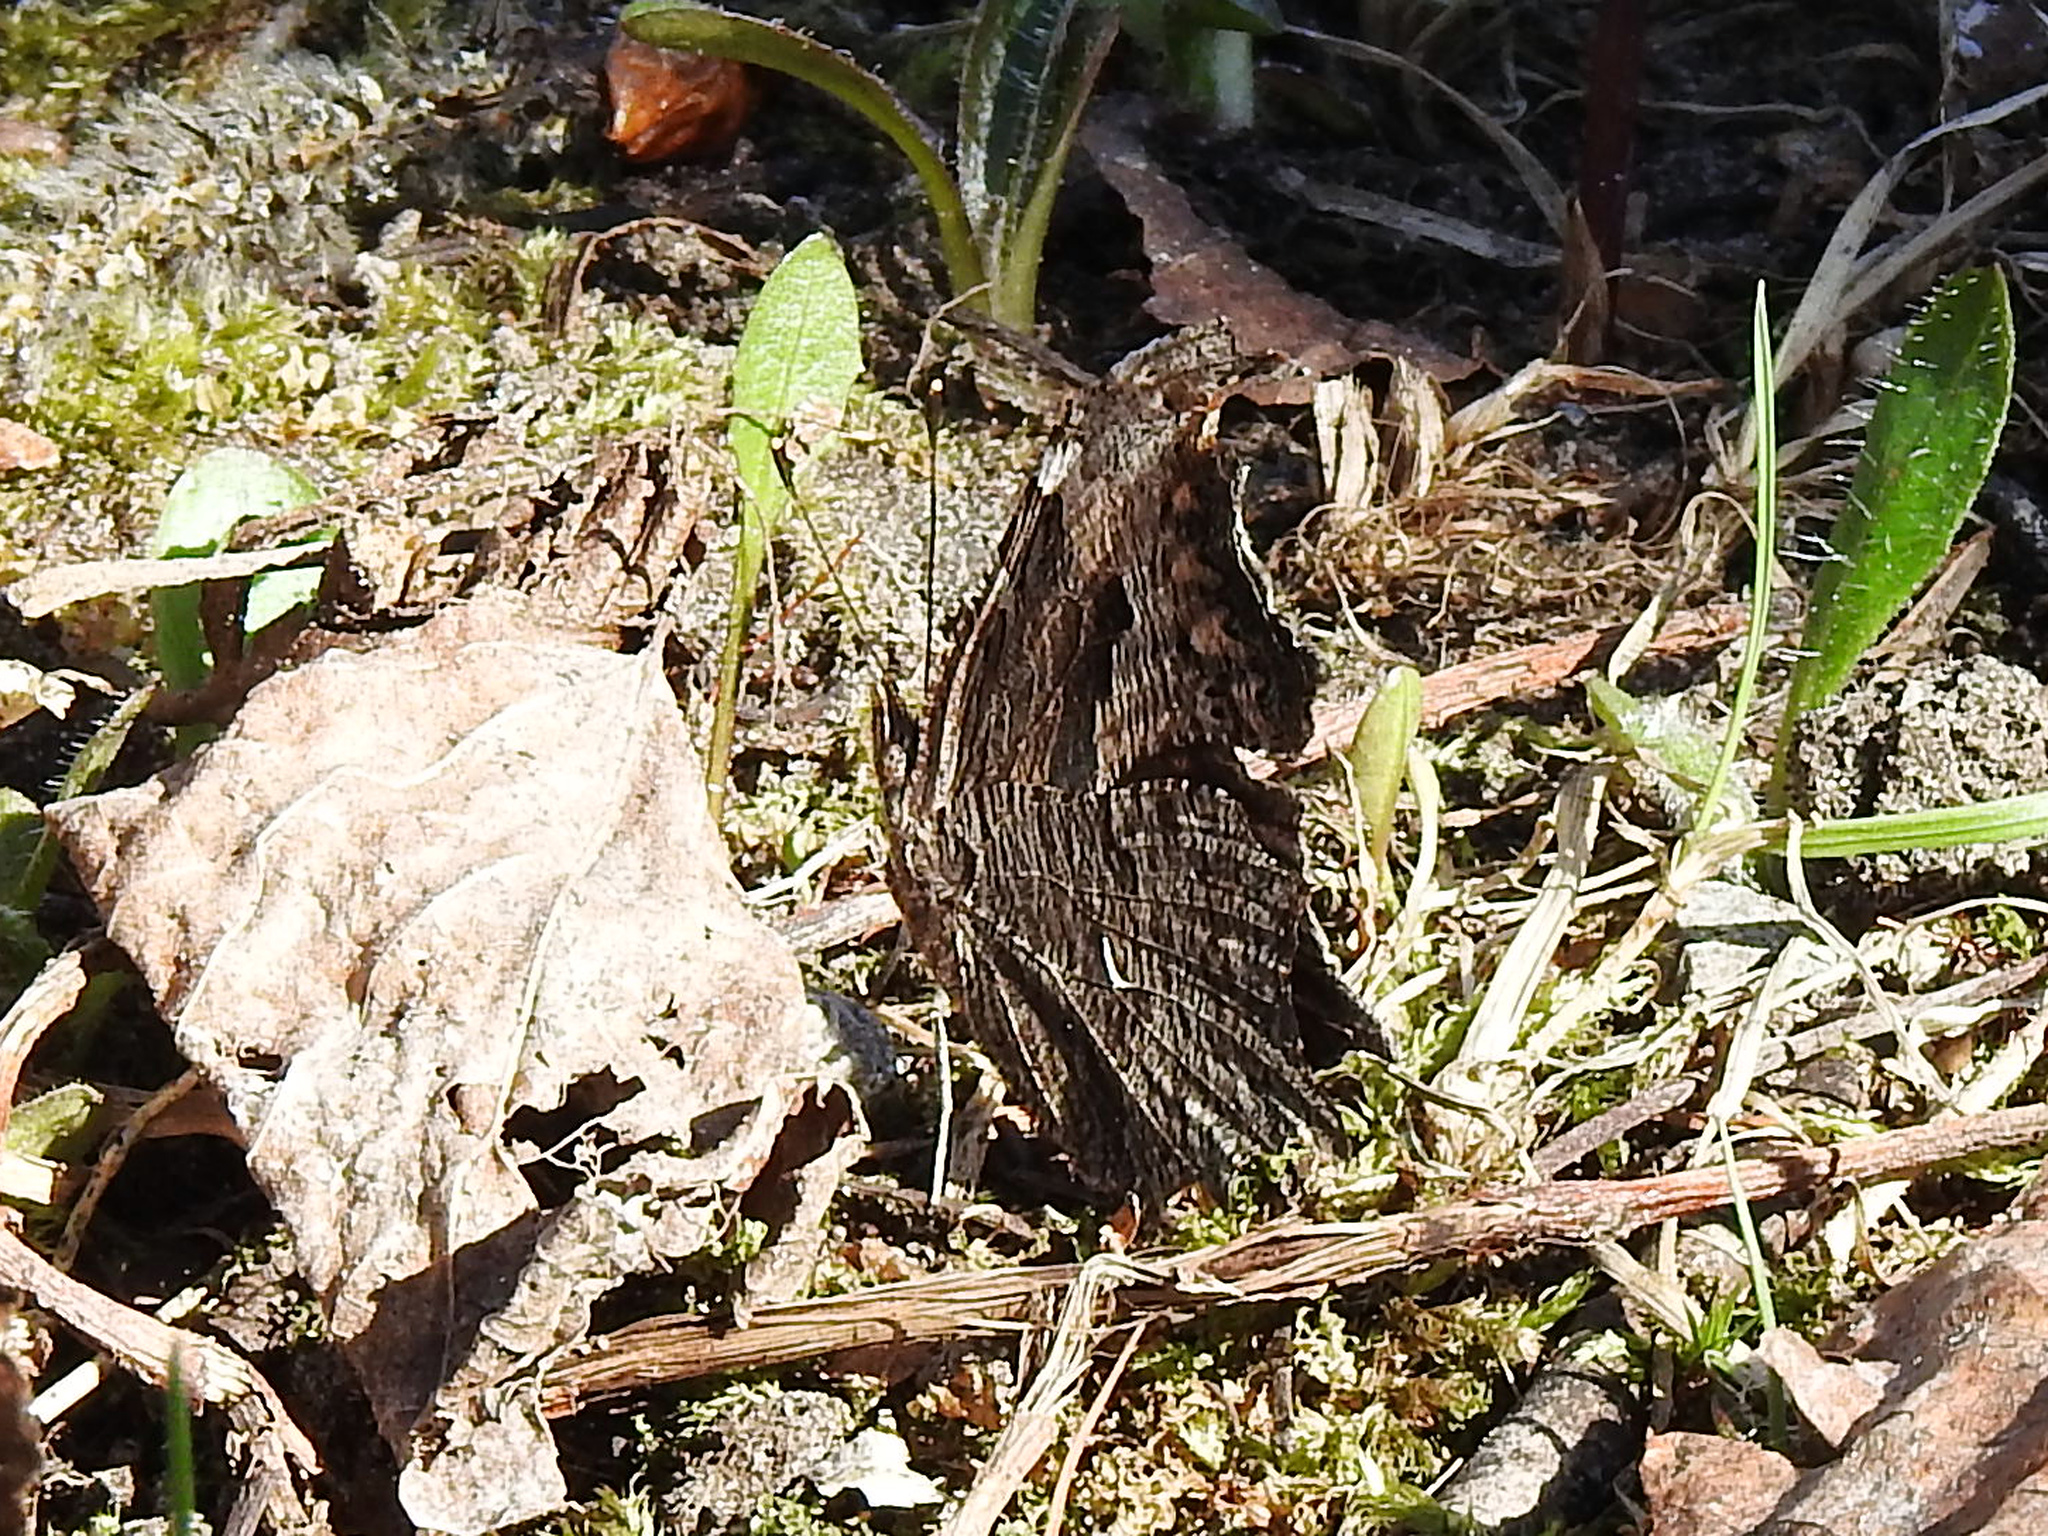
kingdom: Animalia
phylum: Arthropoda
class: Insecta
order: Lepidoptera
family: Nymphalidae
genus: Polygonia
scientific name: Polygonia progne
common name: Gray comma
